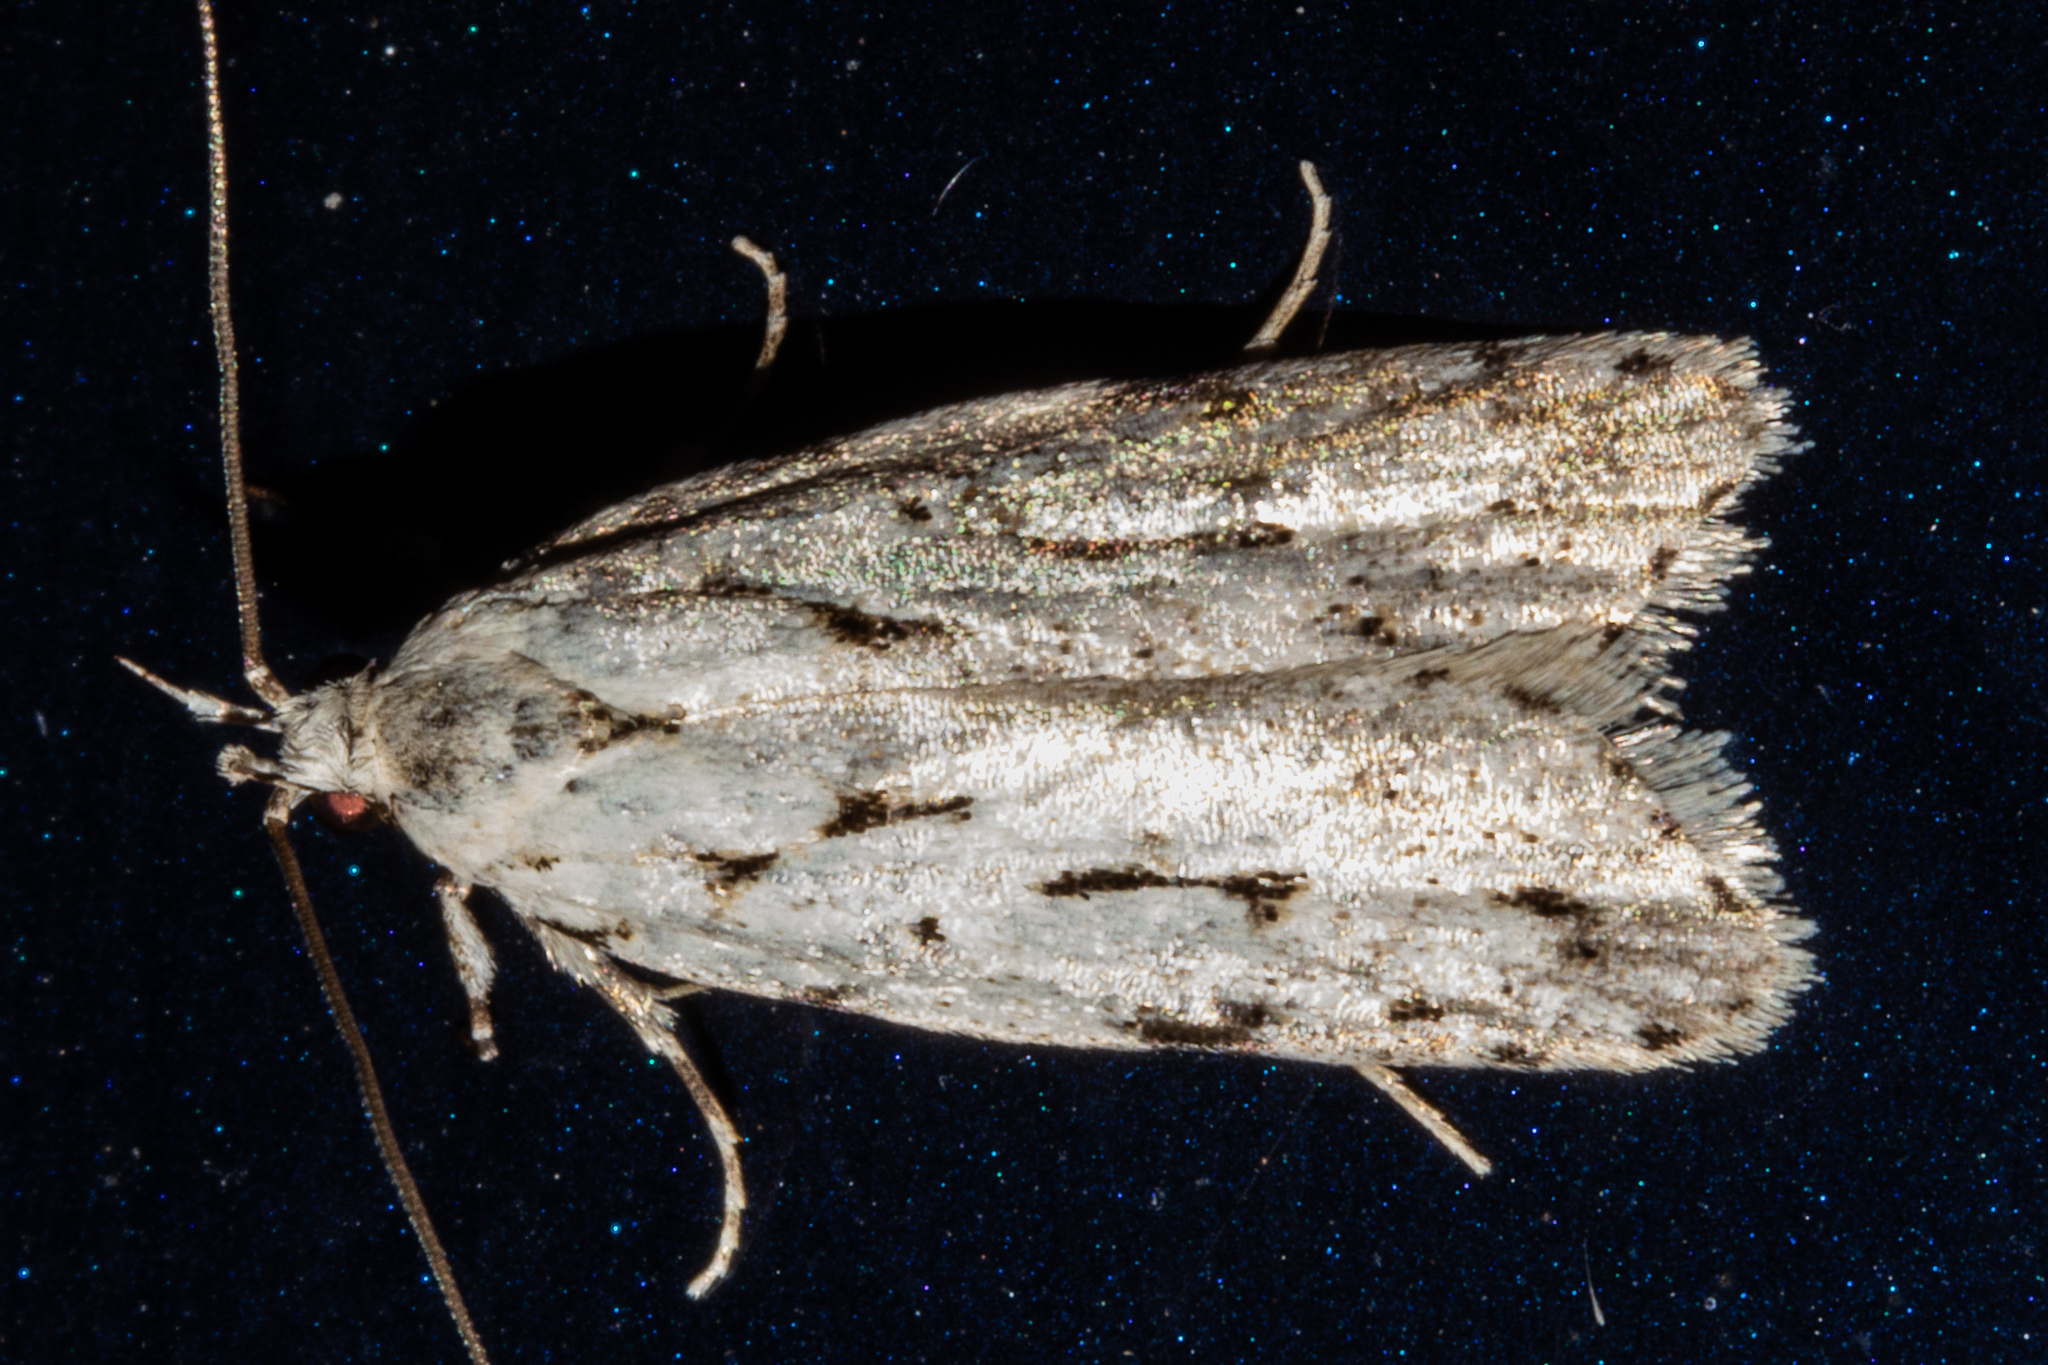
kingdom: Animalia
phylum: Arthropoda
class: Insecta
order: Lepidoptera
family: Oecophoridae
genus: Izatha
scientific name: Izatha heroica
